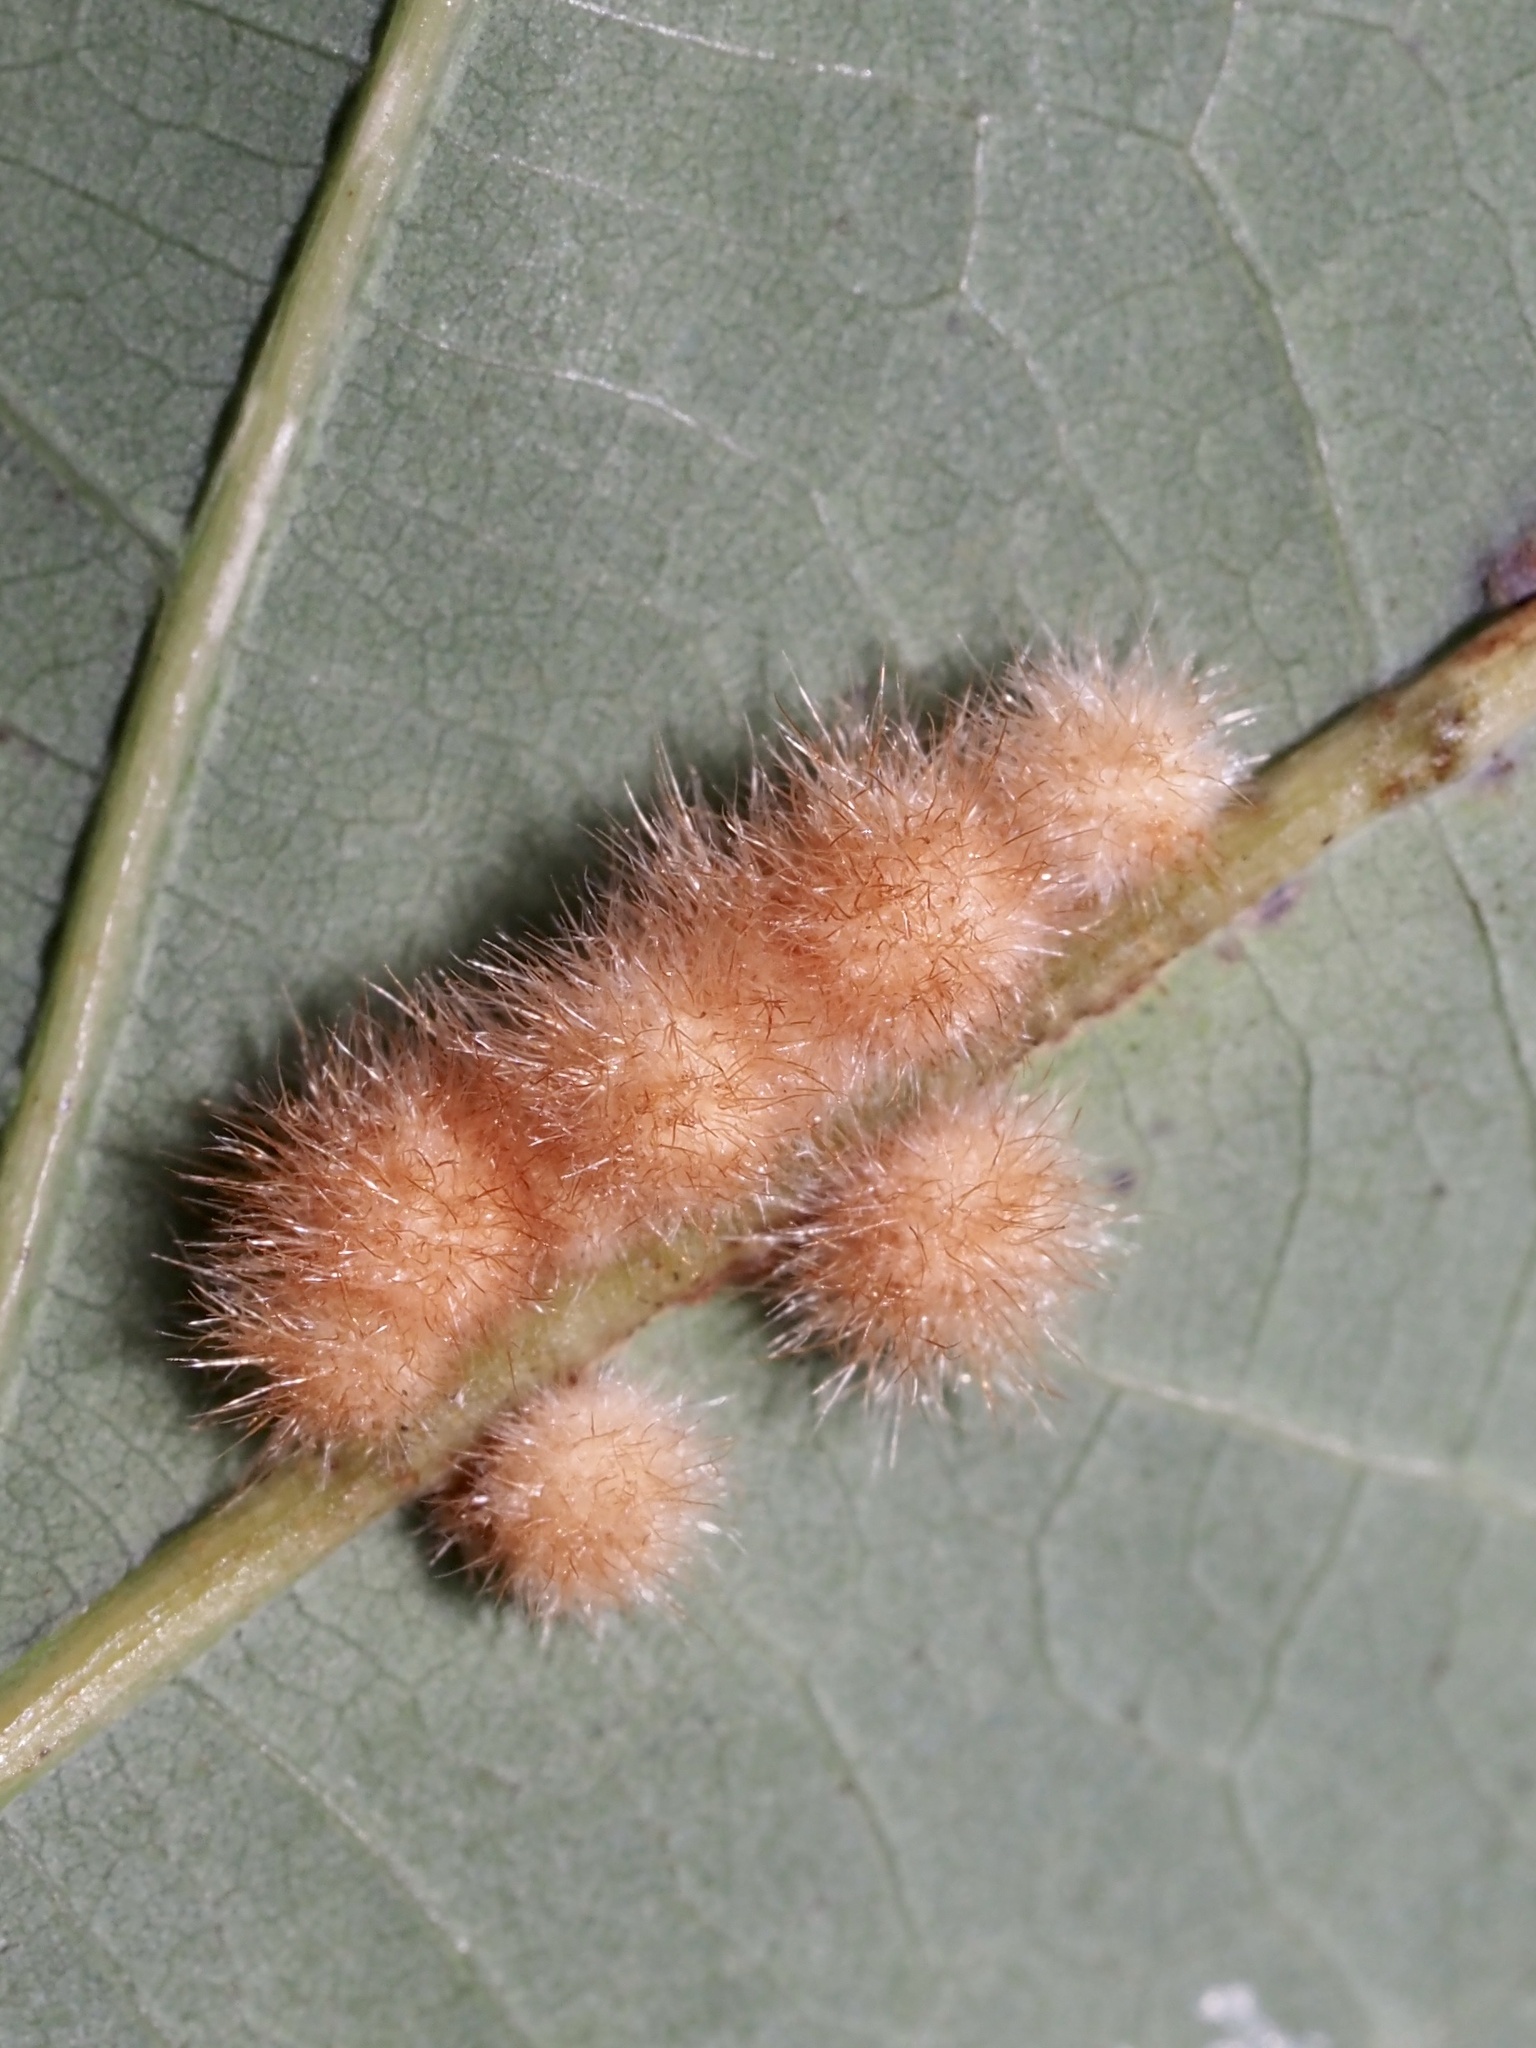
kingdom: Animalia
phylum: Arthropoda
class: Insecta
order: Hymenoptera
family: Cynipidae
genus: Andricus
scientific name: Andricus
